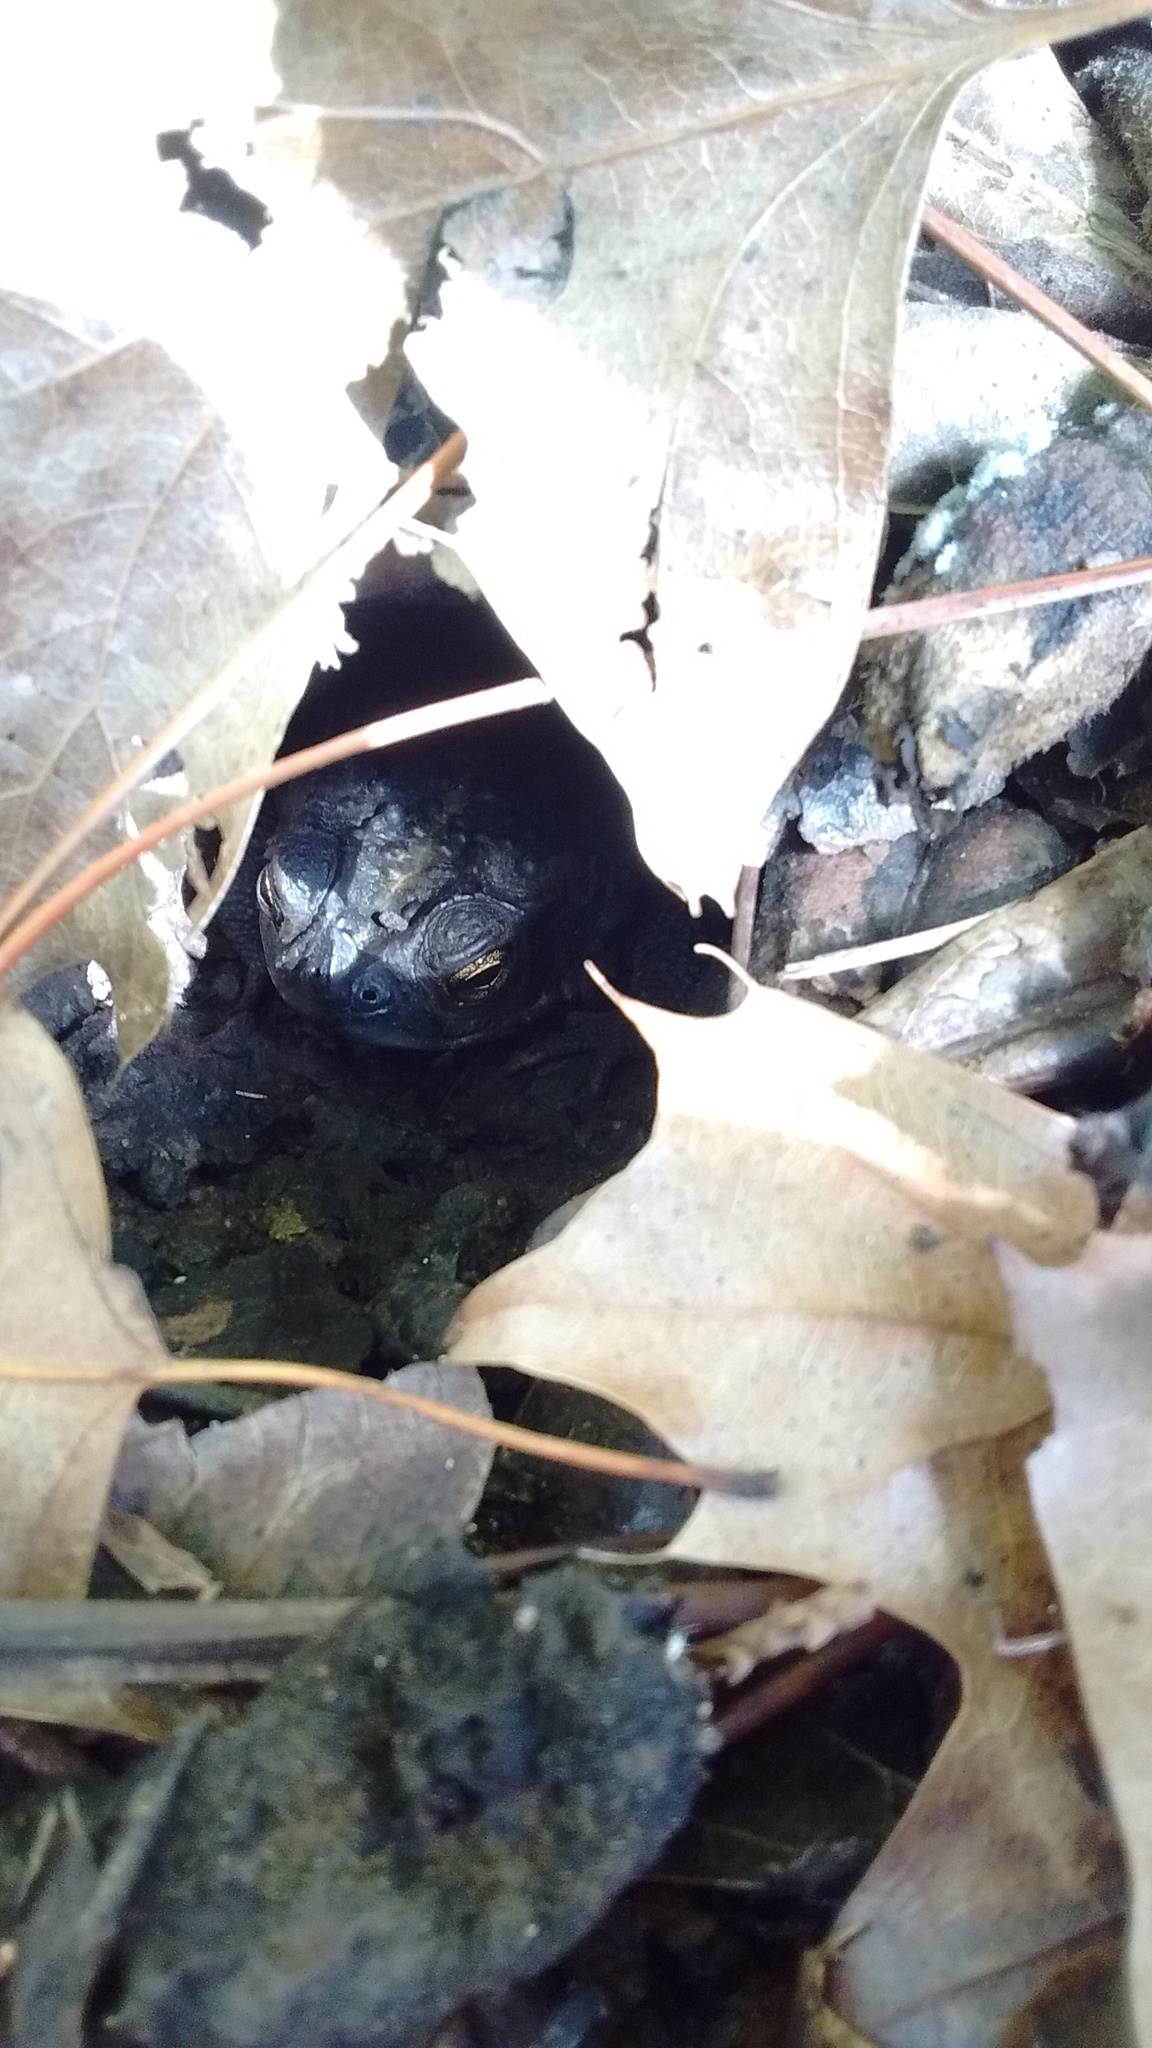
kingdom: Animalia
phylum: Chordata
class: Amphibia
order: Anura
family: Bufonidae
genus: Rhinella
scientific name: Rhinella dorbignyi
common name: D´orbigny’s toad
